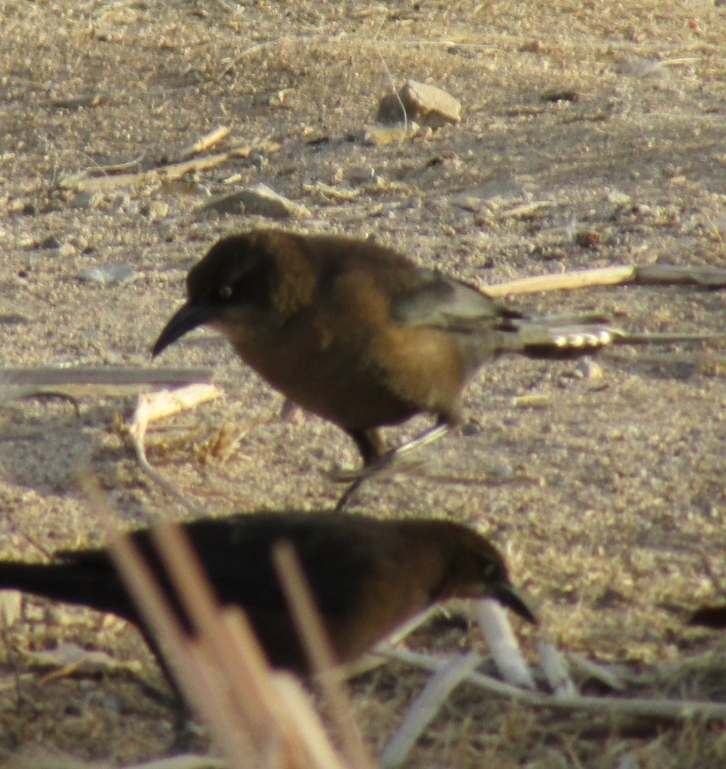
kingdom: Animalia
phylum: Chordata
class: Aves
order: Passeriformes
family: Icteridae
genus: Quiscalus
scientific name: Quiscalus mexicanus
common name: Great-tailed grackle
